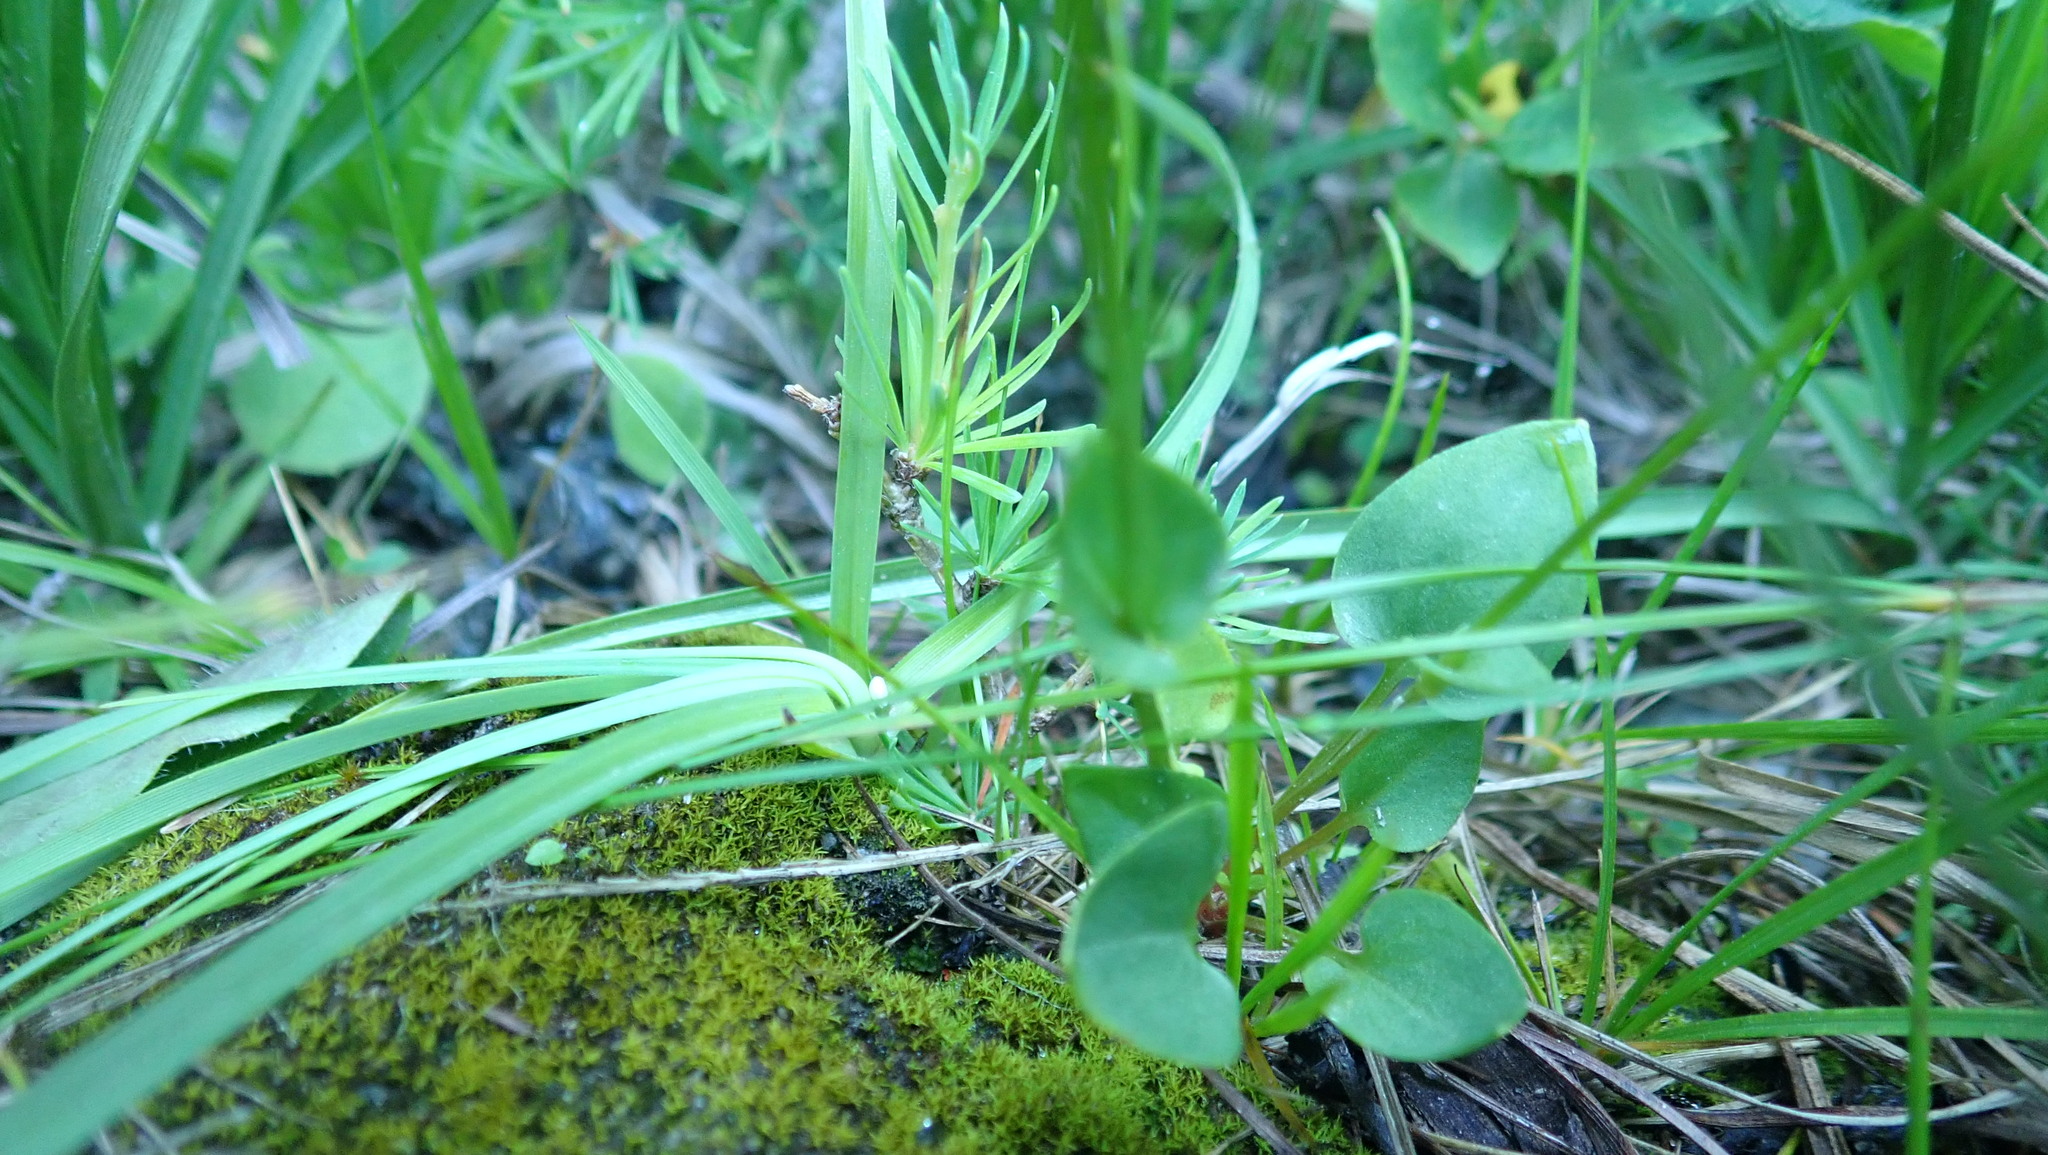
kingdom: Plantae
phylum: Tracheophyta
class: Magnoliopsida
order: Celastrales
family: Parnassiaceae
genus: Parnassia
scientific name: Parnassia palustris
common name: Grass-of-parnassus
